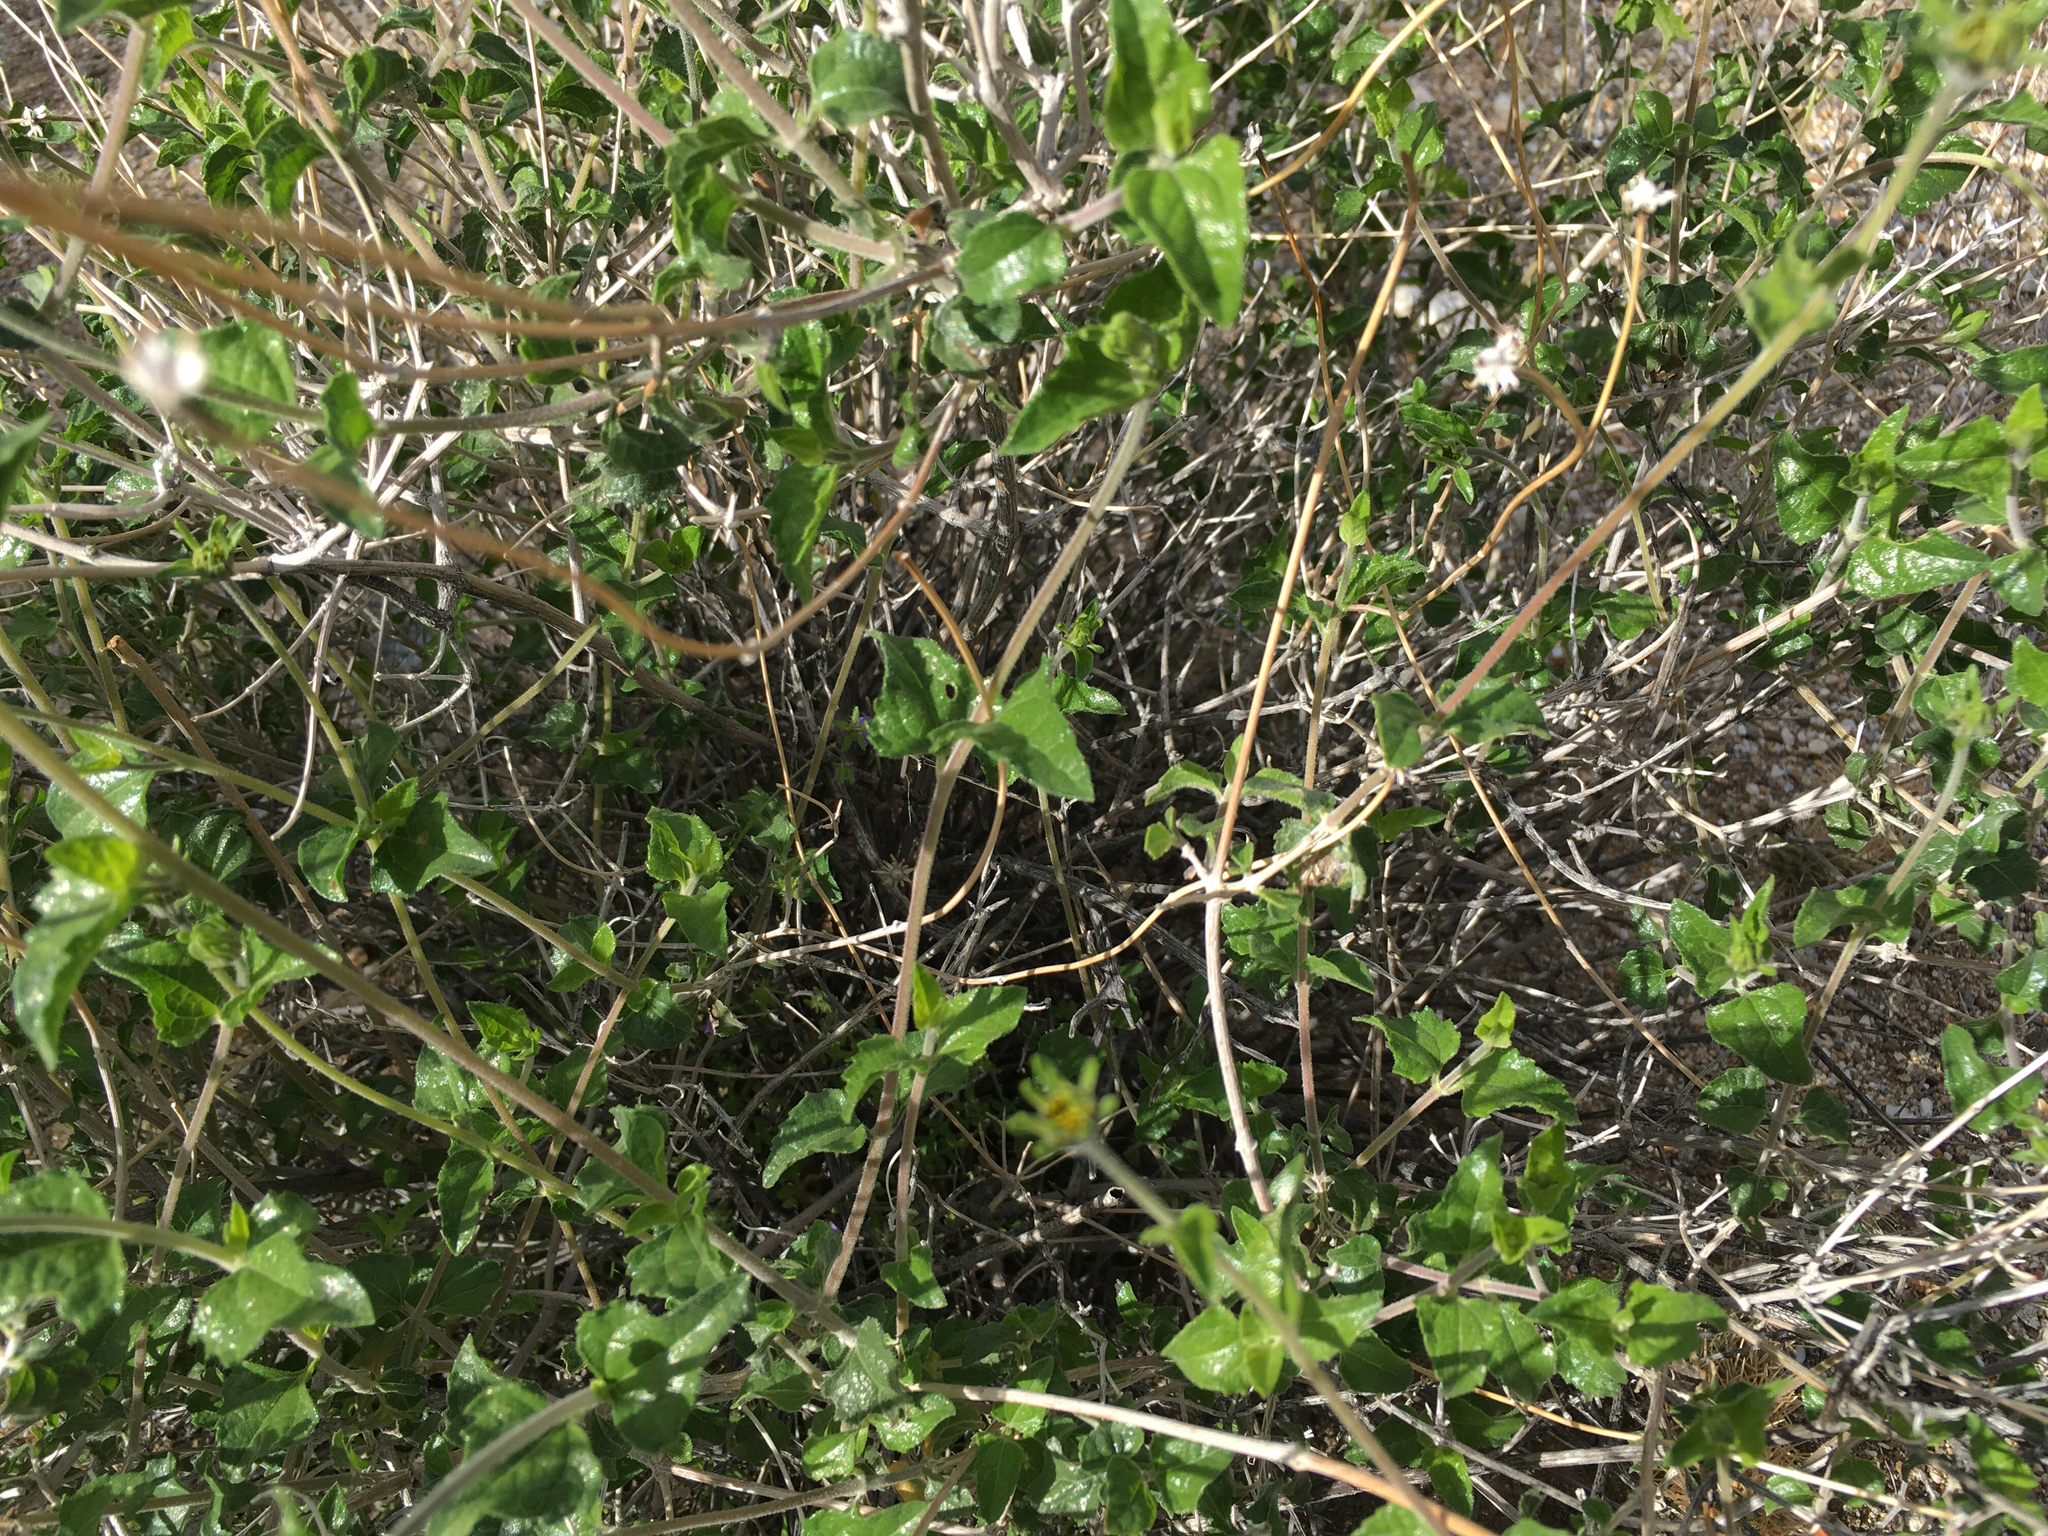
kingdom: Plantae
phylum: Tracheophyta
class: Magnoliopsida
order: Asterales
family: Asteraceae
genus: Bahiopsis
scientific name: Bahiopsis parishii
